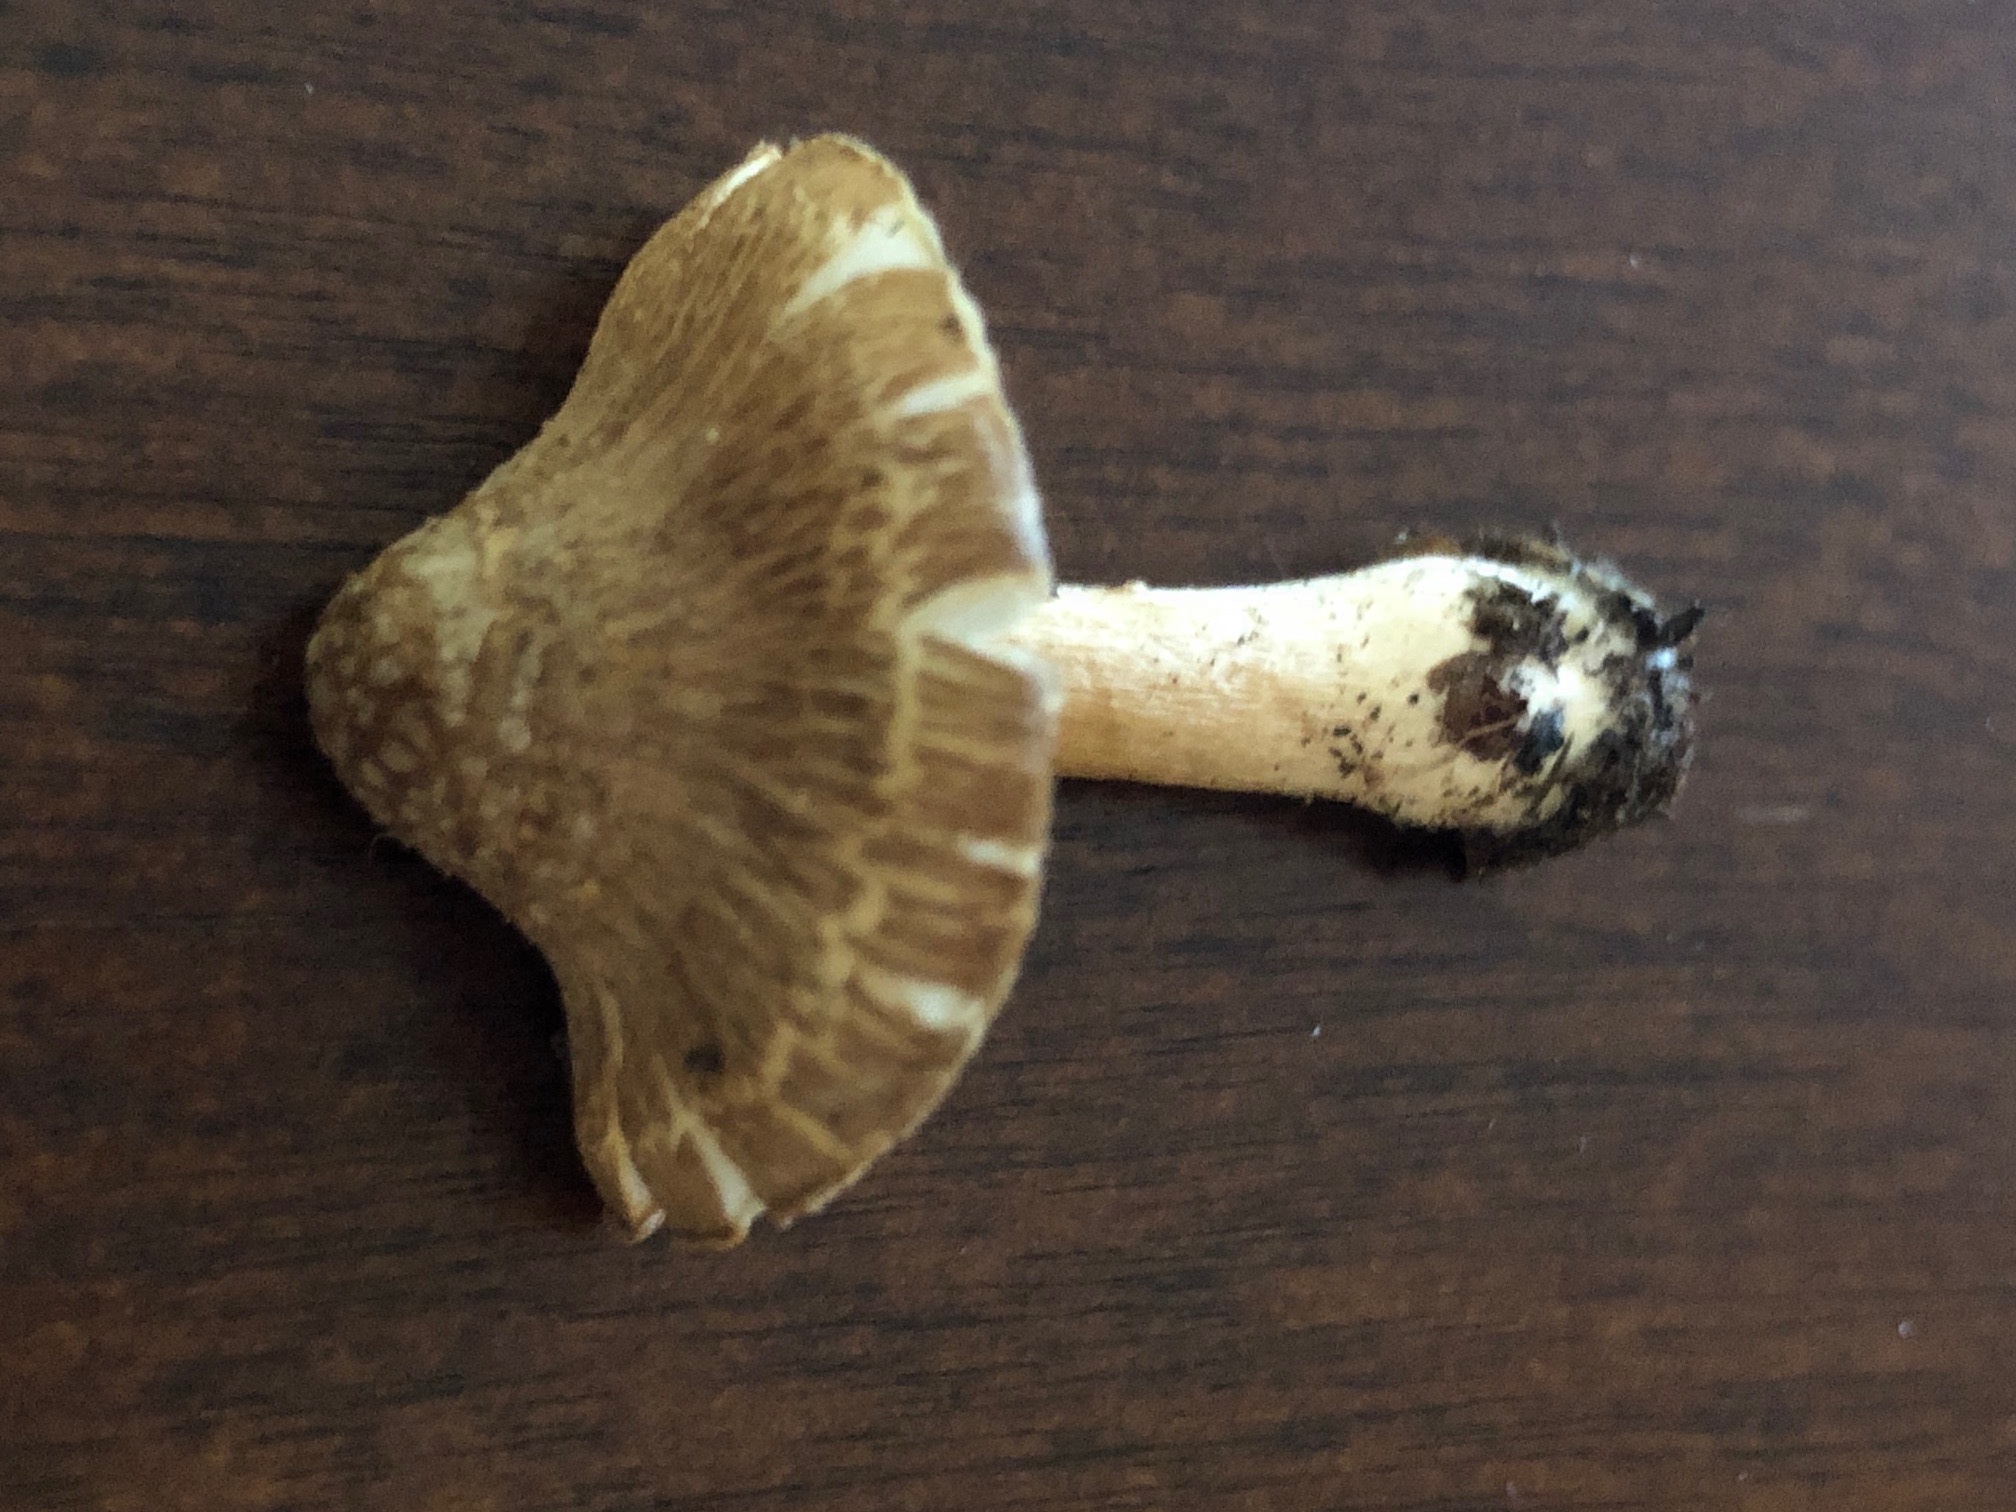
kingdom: Fungi
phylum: Basidiomycota
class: Agaricomycetes
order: Agaricales
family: Inocybaceae
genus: Inocybe
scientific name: Inocybe plurabellae
